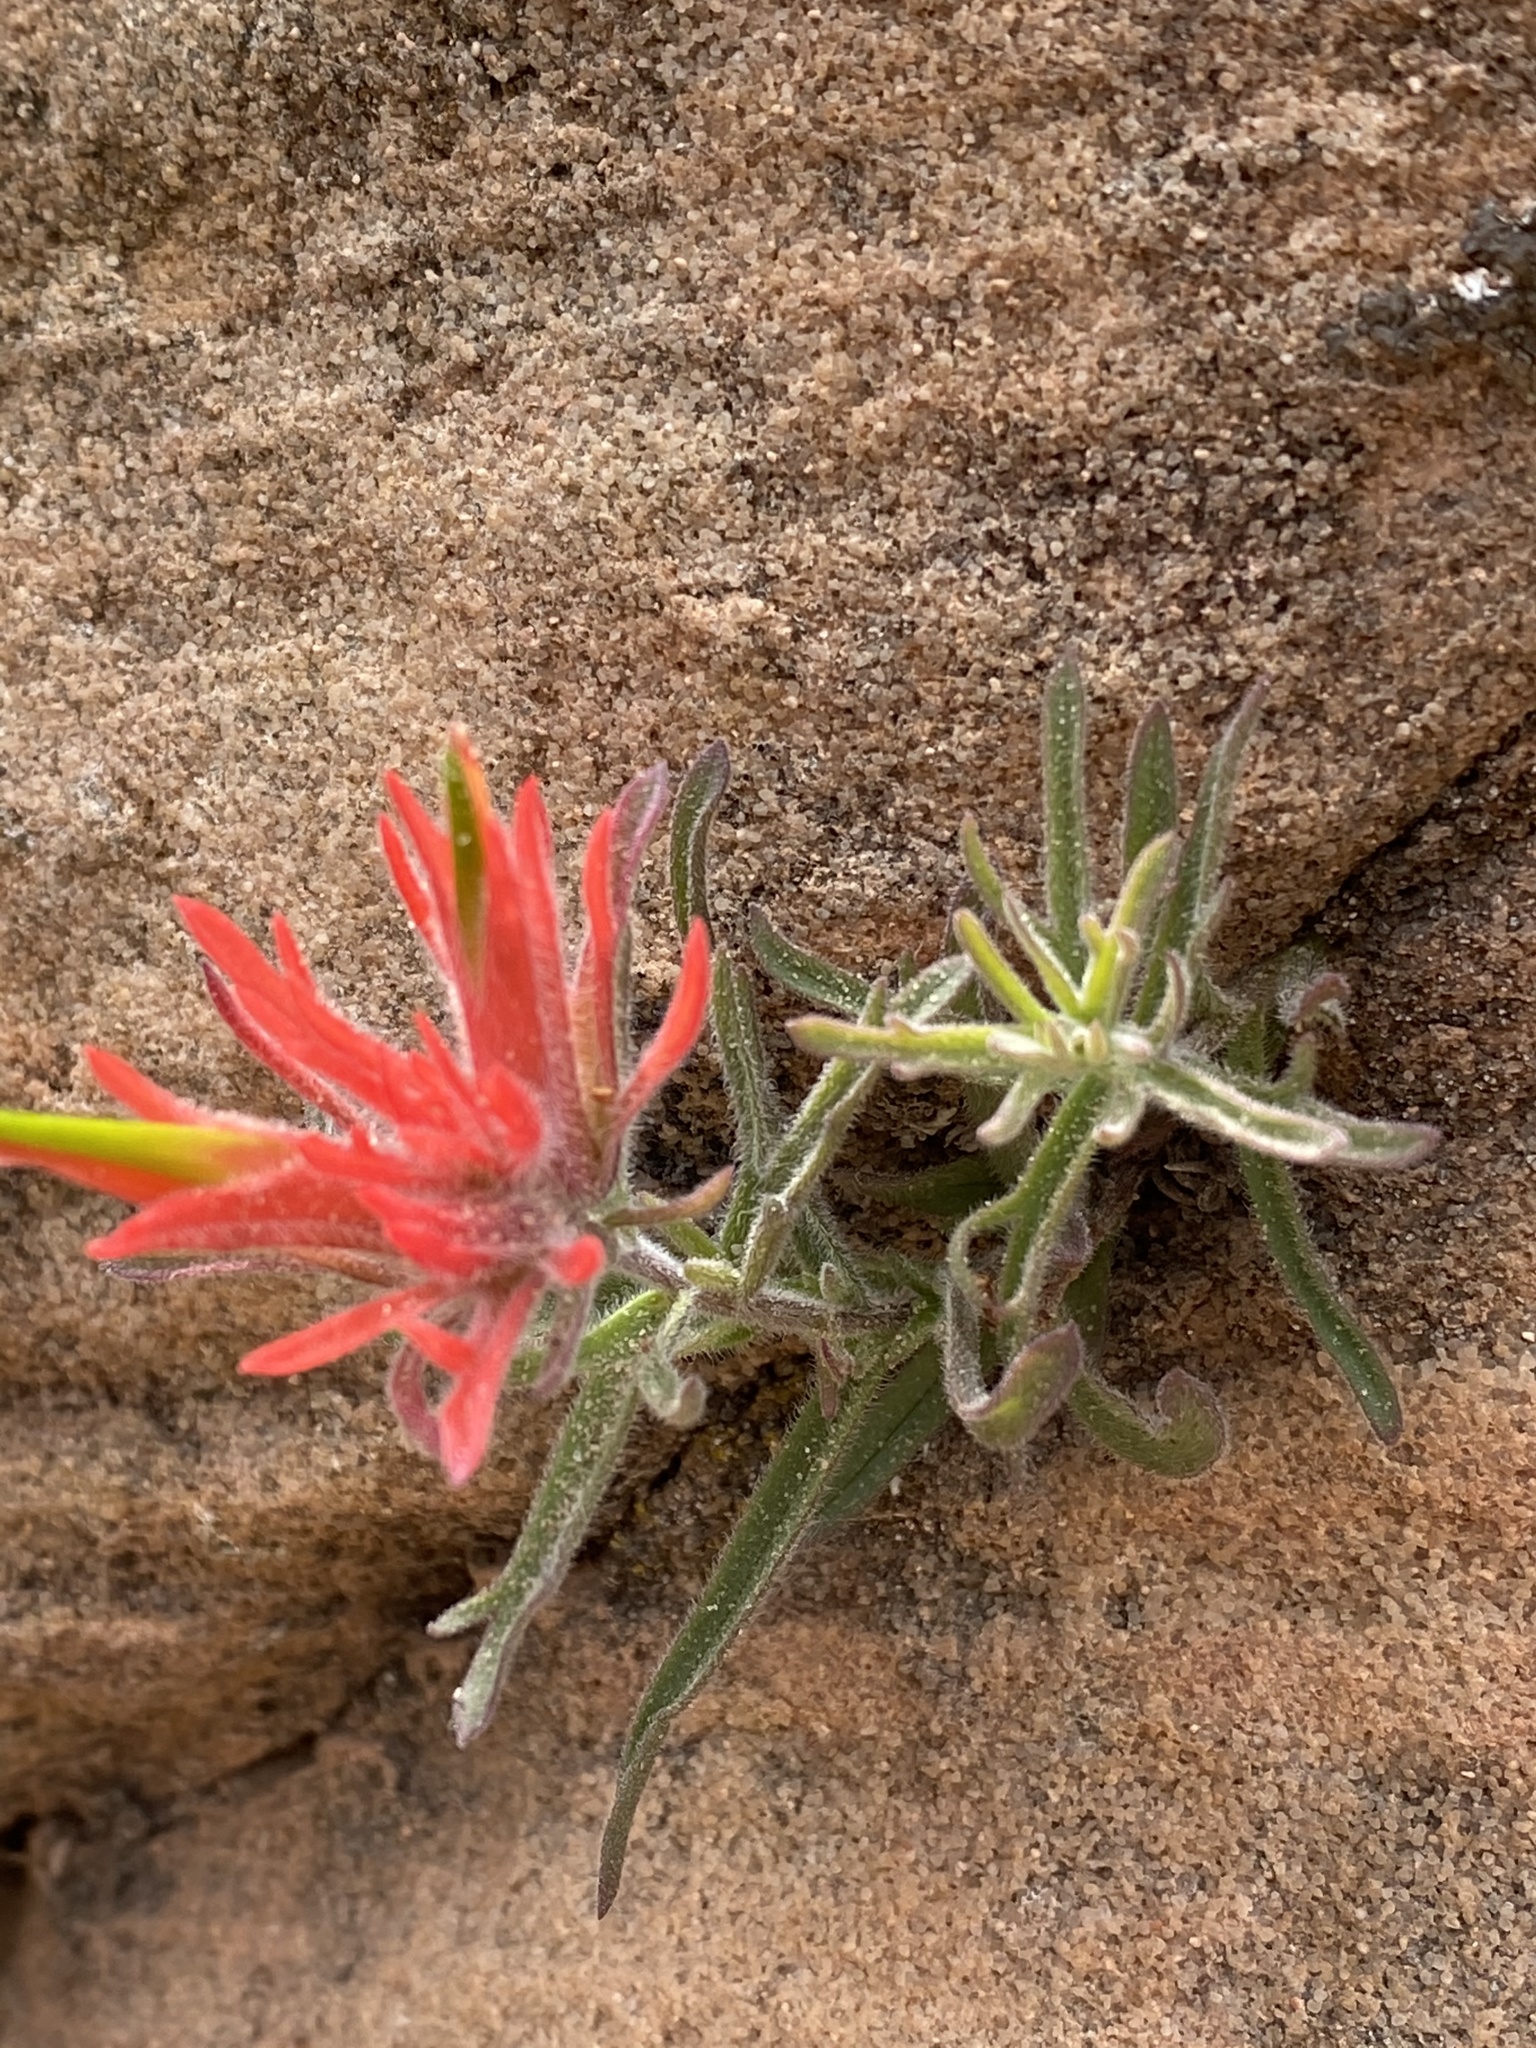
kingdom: Plantae
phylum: Tracheophyta
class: Magnoliopsida
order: Lamiales
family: Orobanchaceae
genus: Castilleja
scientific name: Castilleja scabrida
